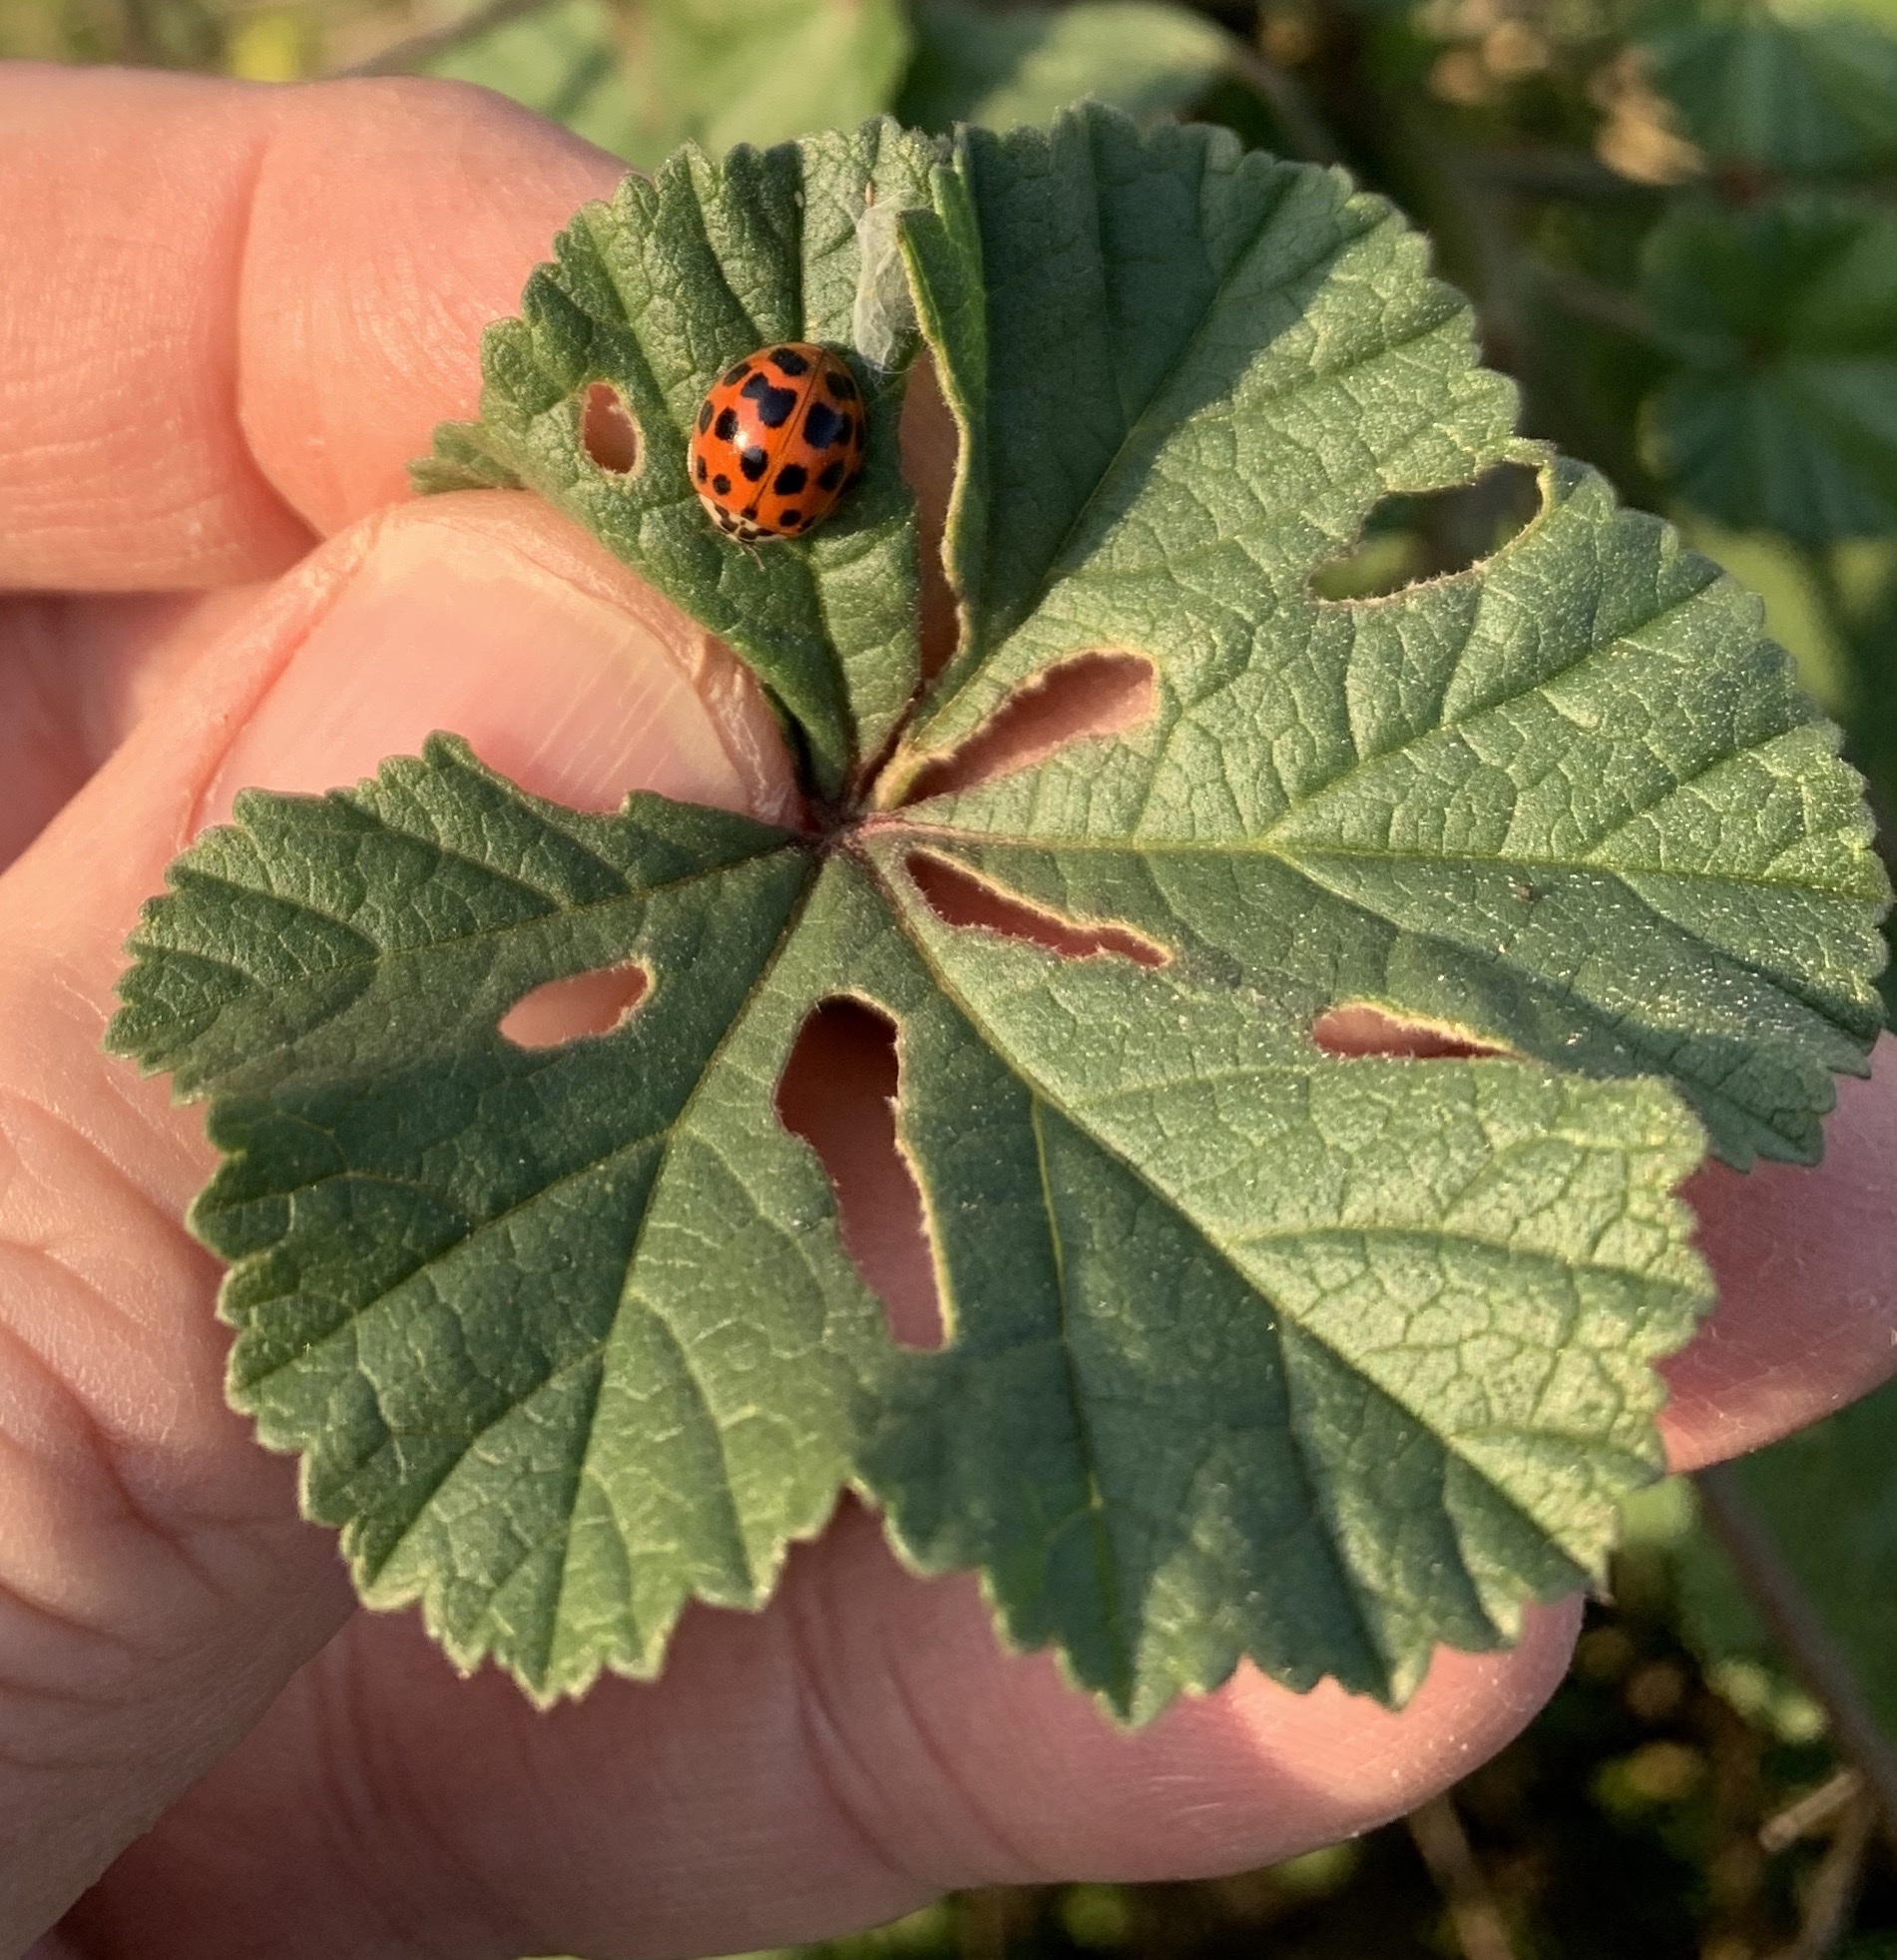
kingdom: Animalia
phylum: Arthropoda
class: Insecta
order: Coleoptera
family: Coccinellidae
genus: Harmonia
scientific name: Harmonia axyridis
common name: Harlequin ladybird
